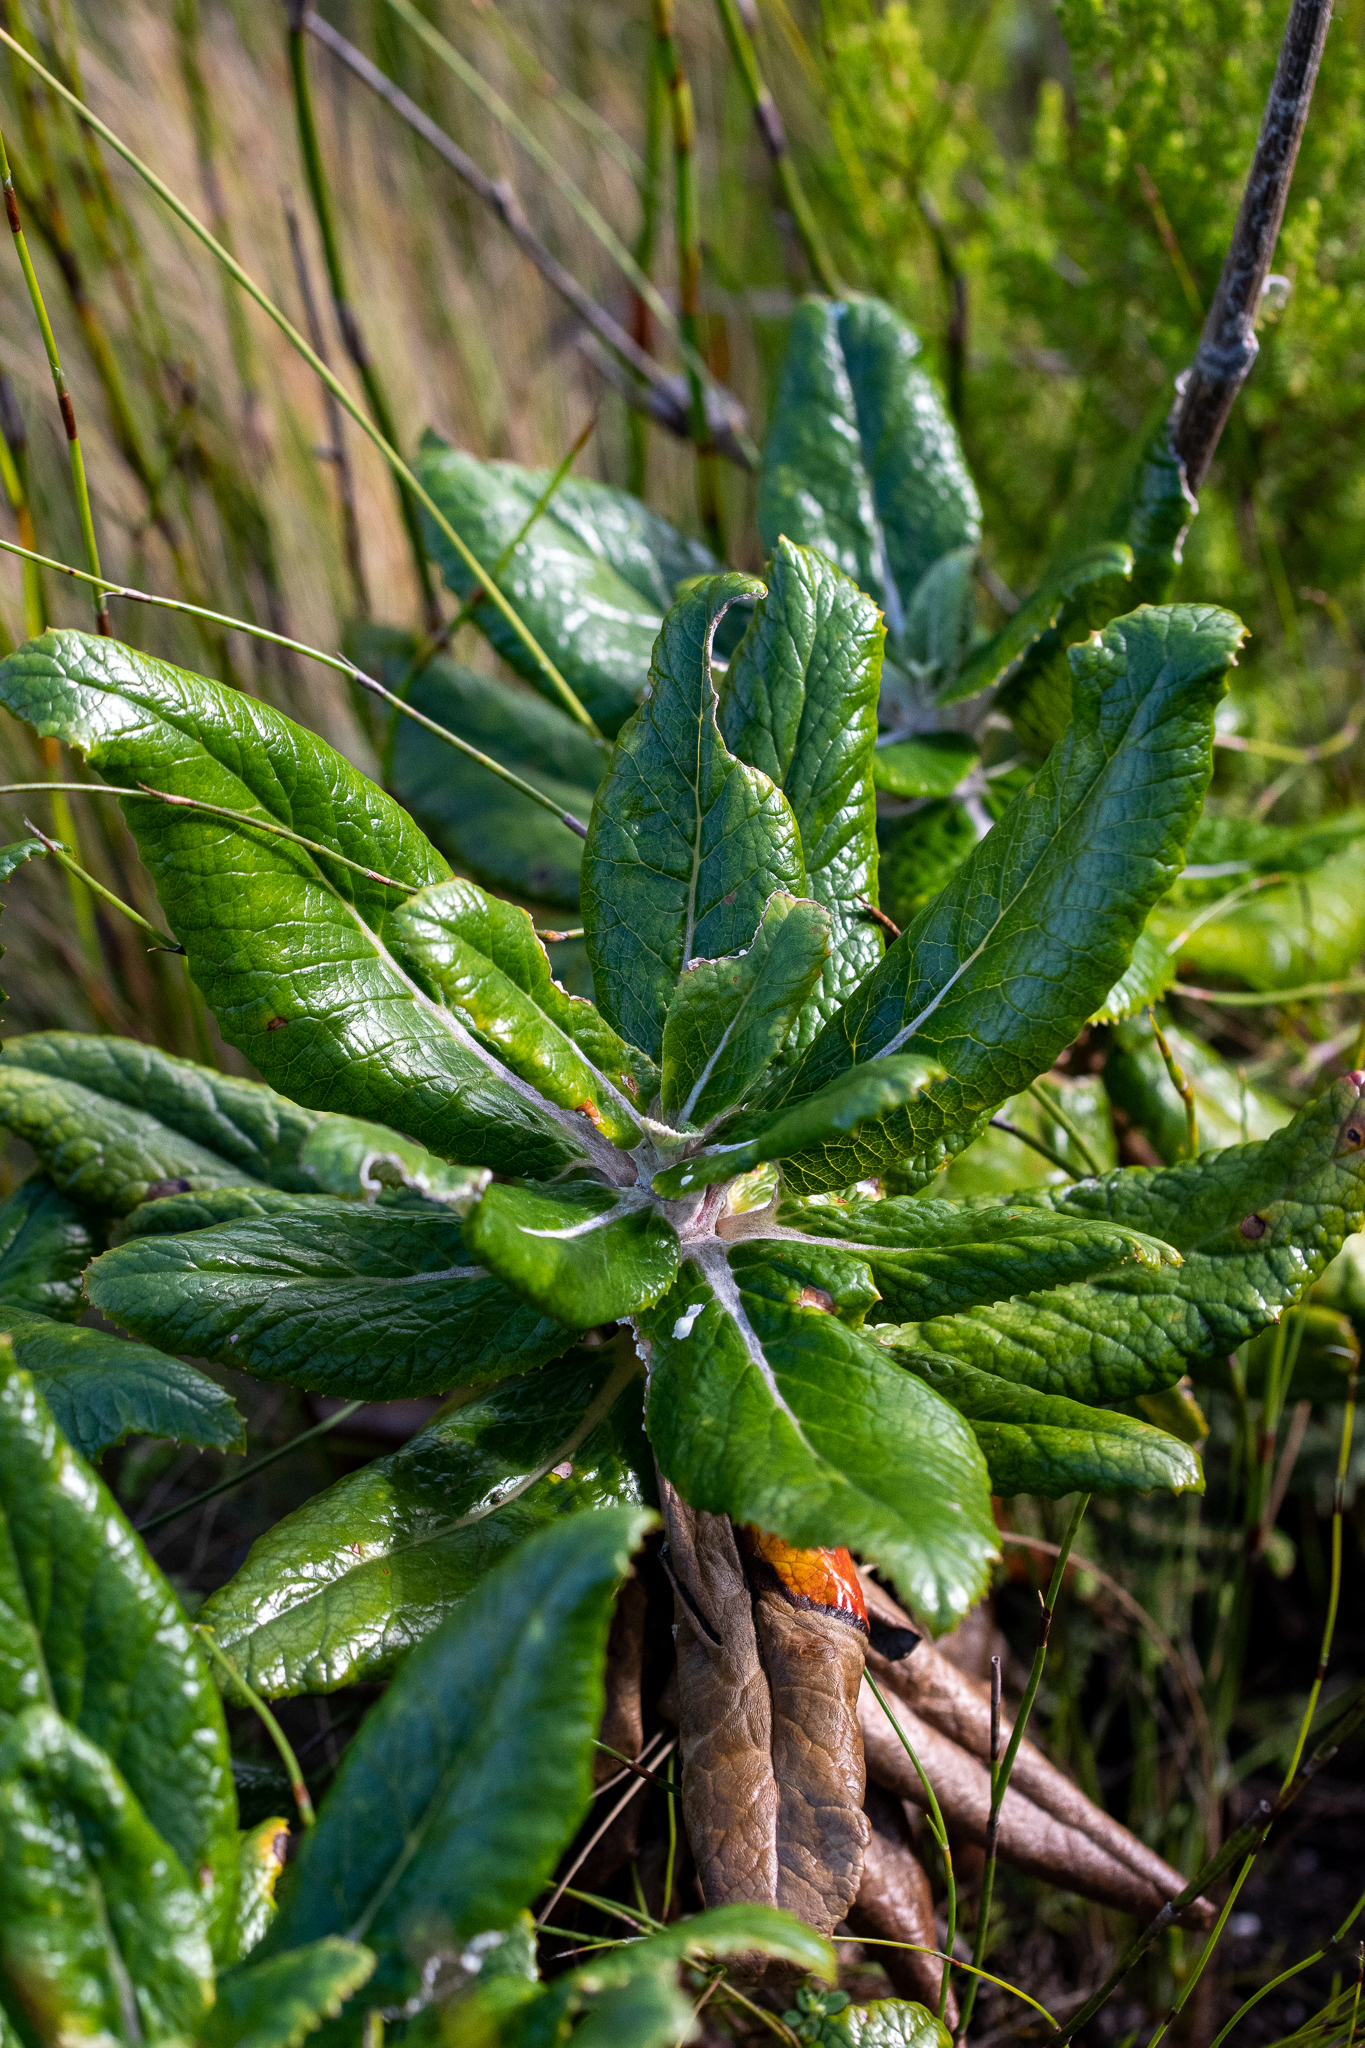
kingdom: Plantae
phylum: Tracheophyta
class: Magnoliopsida
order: Apiales
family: Apiaceae
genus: Hermas
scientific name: Hermas villosa
